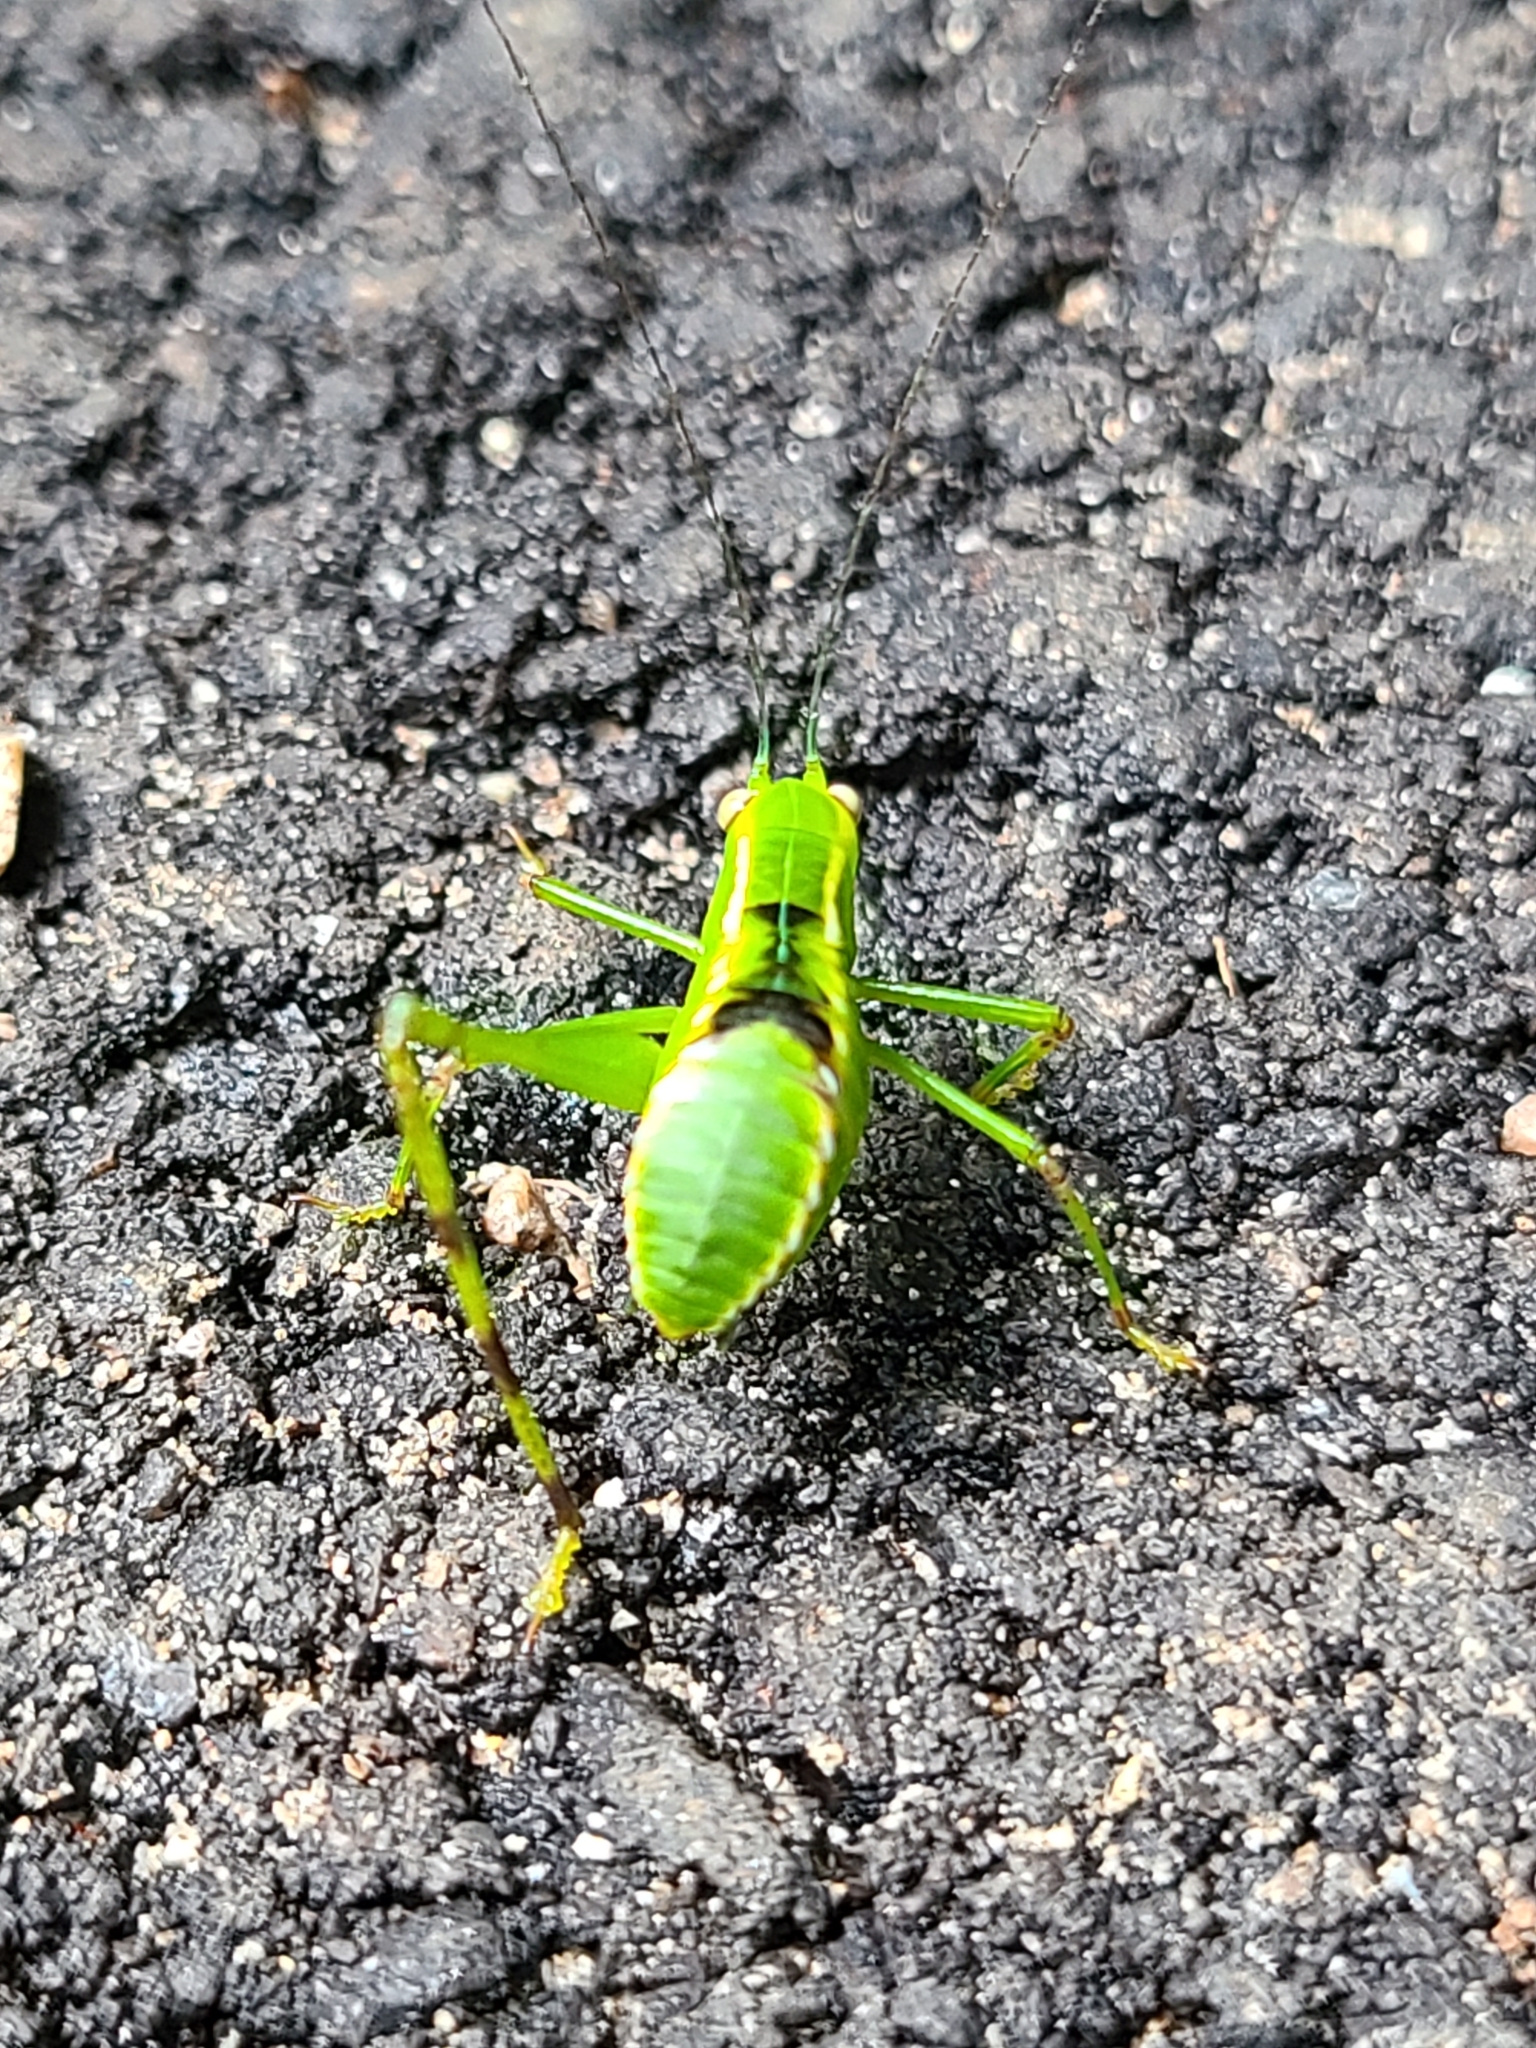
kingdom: Animalia
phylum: Arthropoda
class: Insecta
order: Orthoptera
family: Tettigoniidae
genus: Stilpnochlora
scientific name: Stilpnochlora couloniana
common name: Giant katydid
